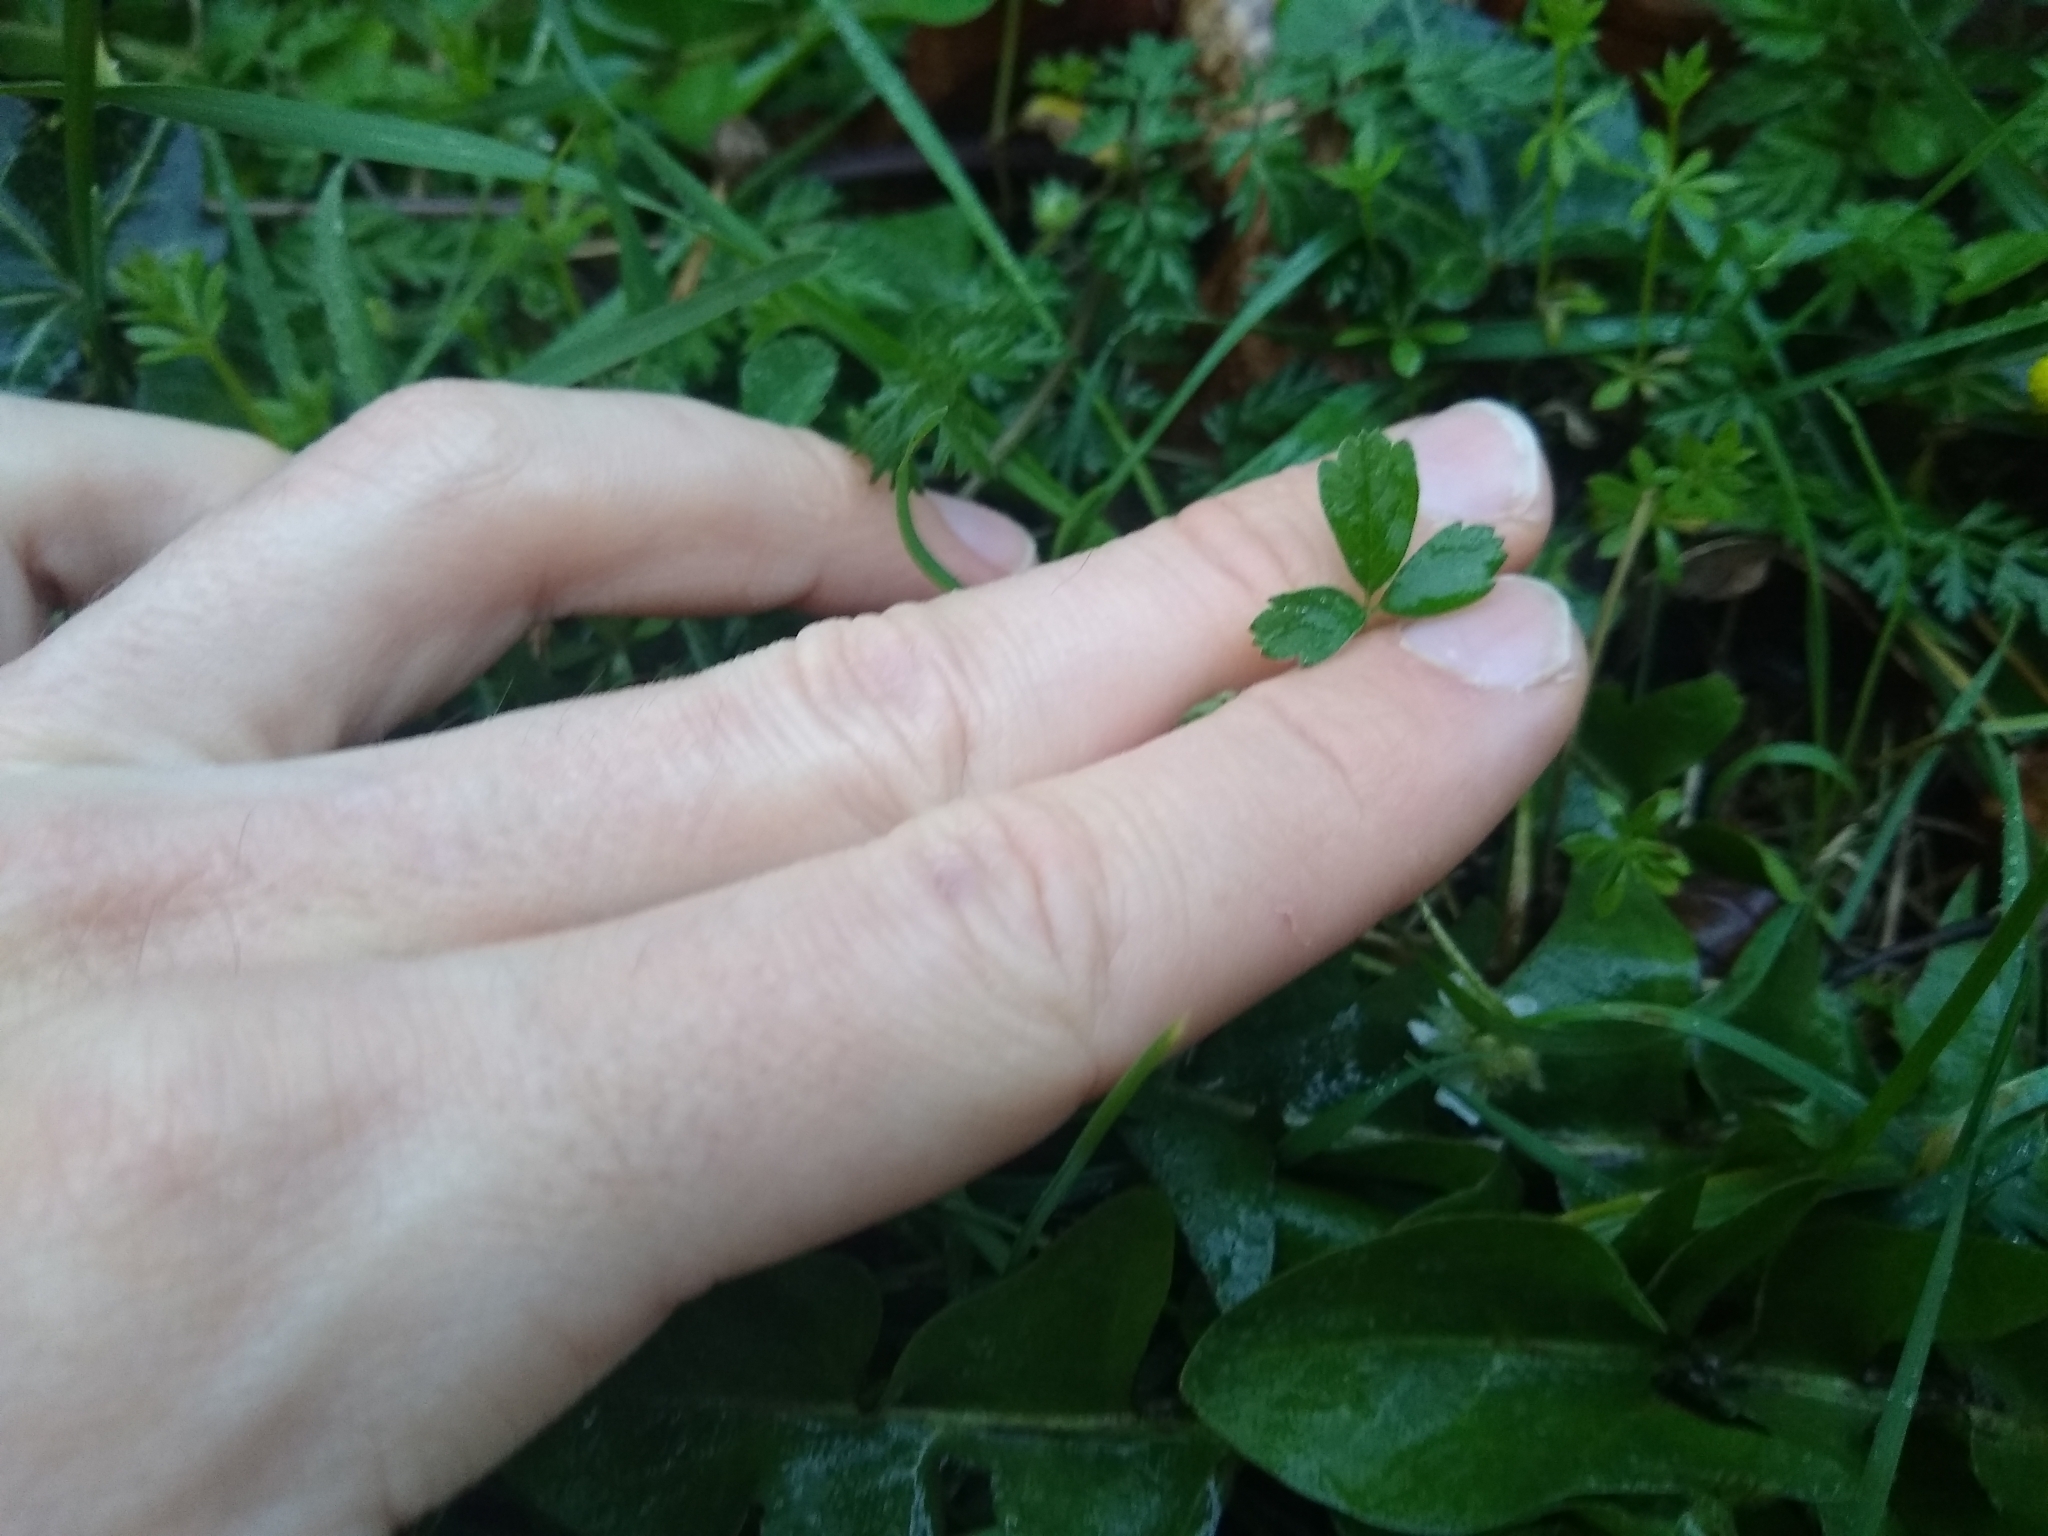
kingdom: Plantae
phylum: Tracheophyta
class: Magnoliopsida
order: Rosales
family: Rosaceae
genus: Potentilla
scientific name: Potentilla sterilis
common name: Barren strawberry
